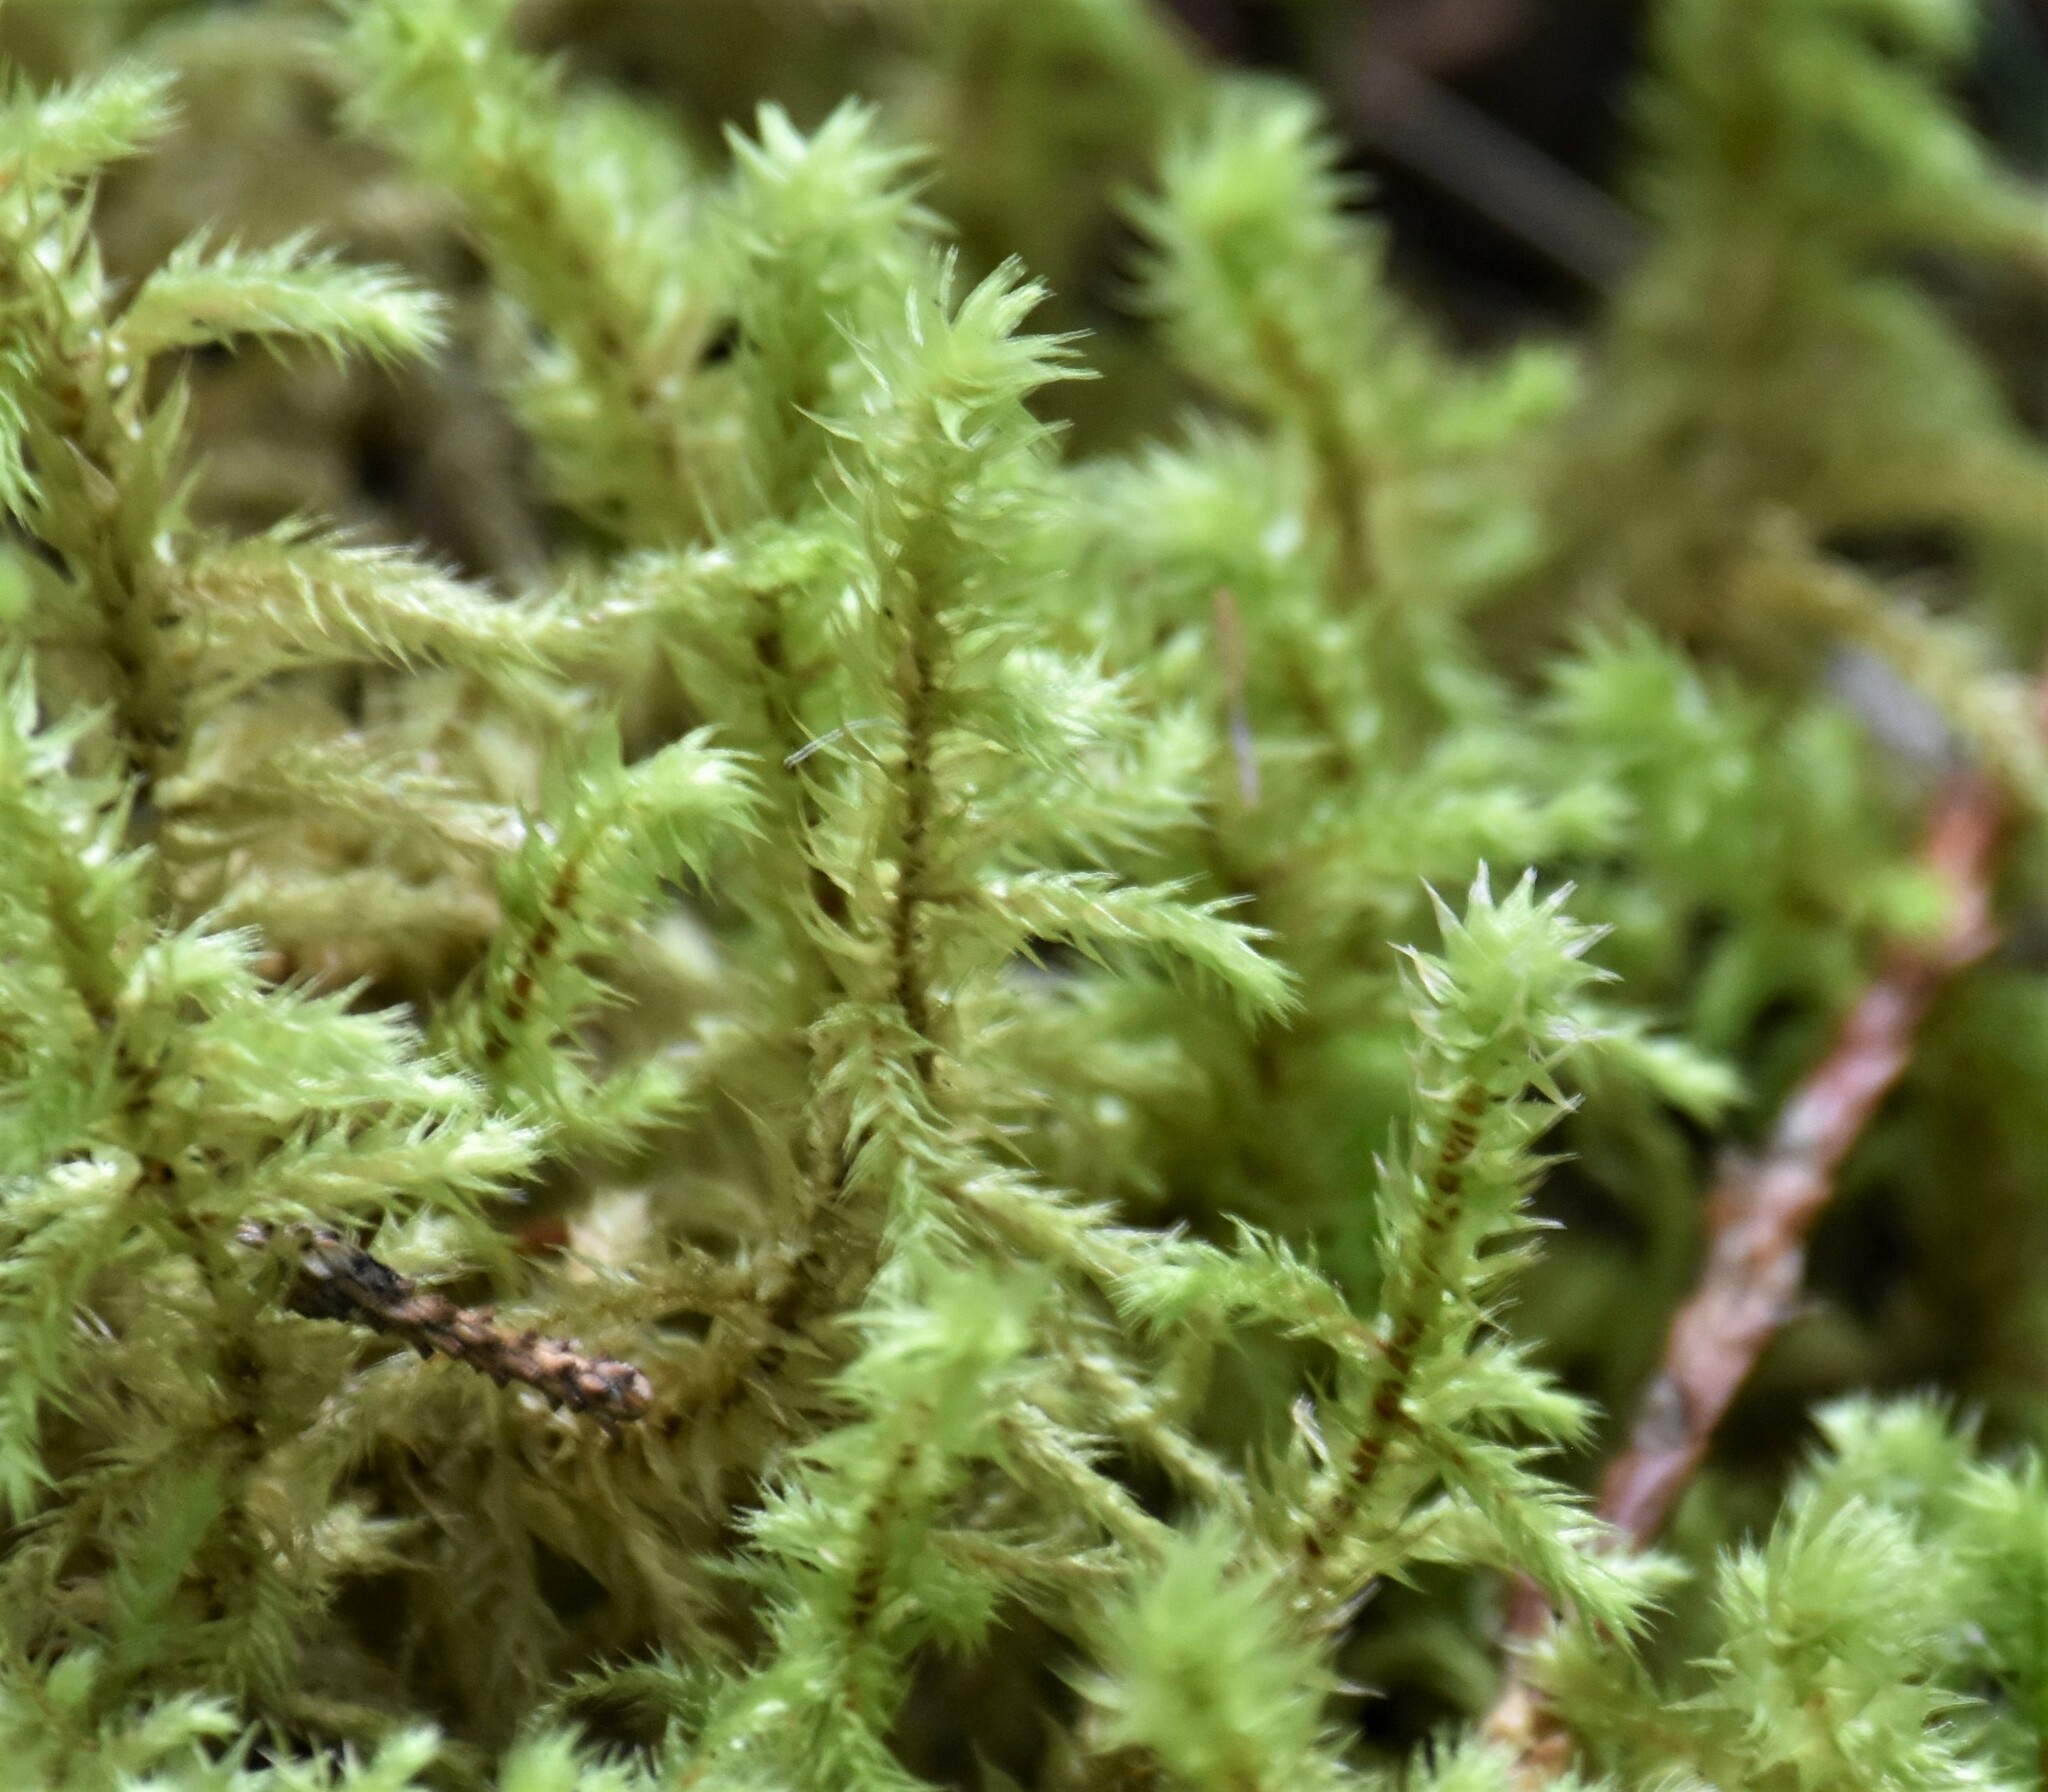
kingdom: Plantae
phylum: Bryophyta
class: Bryopsida
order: Hypnales
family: Hylocomiaceae
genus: Hylocomiadelphus
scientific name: Hylocomiadelphus triquetrus
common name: Rough goose neck moss
